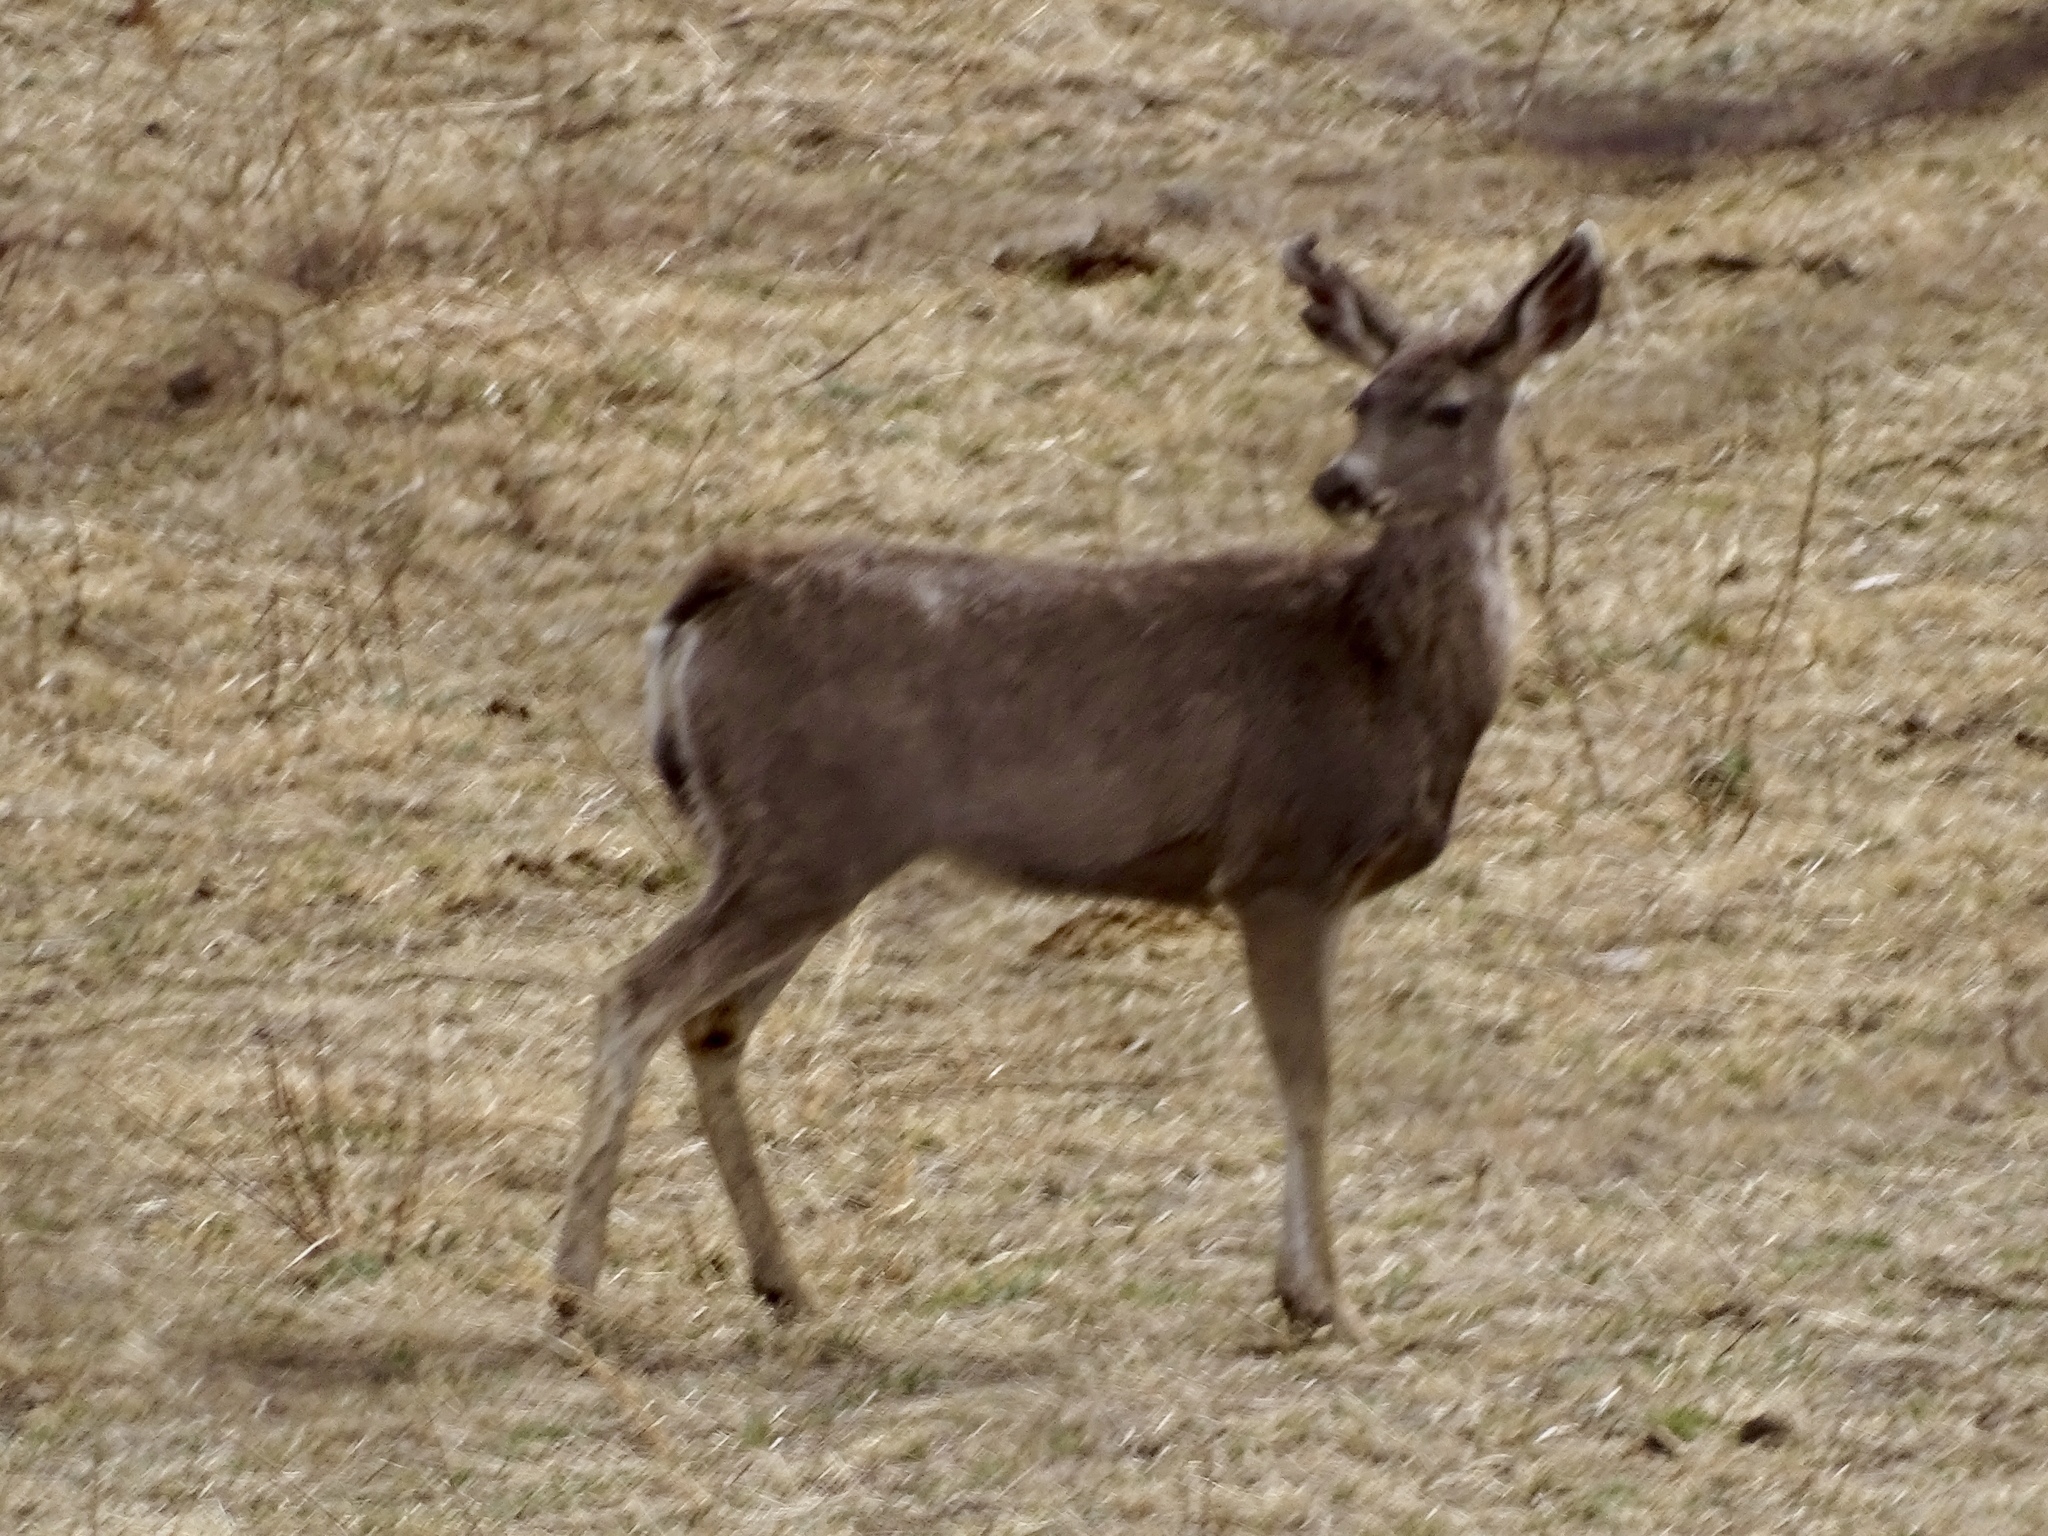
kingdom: Animalia
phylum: Chordata
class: Mammalia
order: Artiodactyla
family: Cervidae
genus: Odocoileus
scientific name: Odocoileus hemionus
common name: Mule deer
